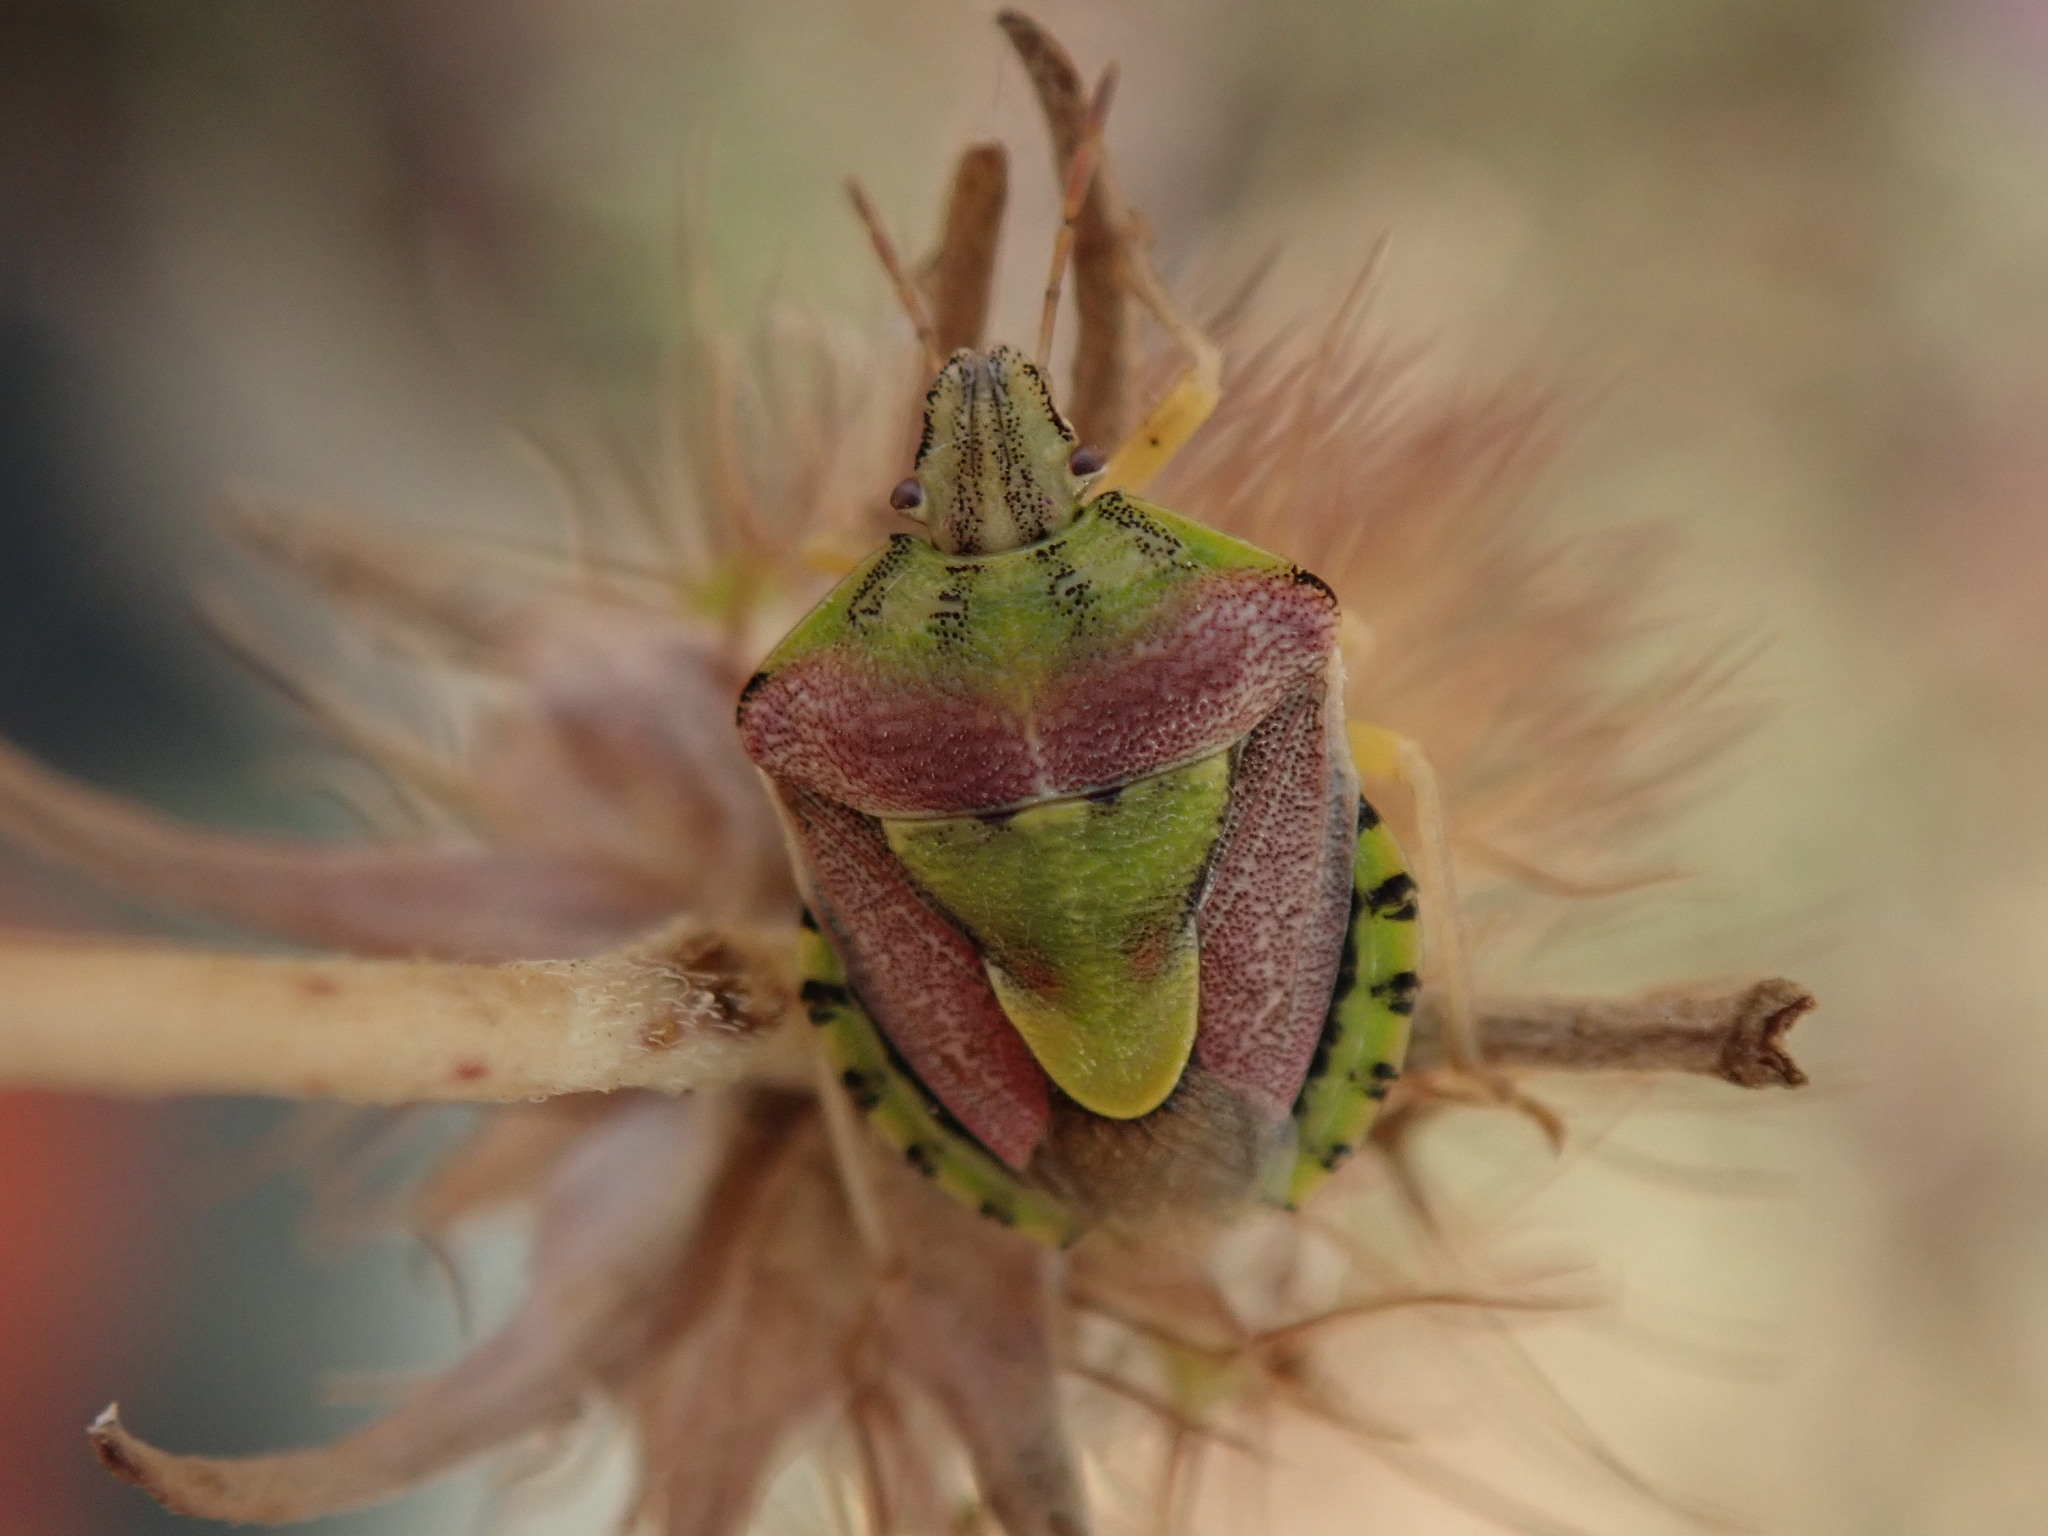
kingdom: Animalia
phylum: Arthropoda
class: Insecta
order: Hemiptera
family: Pentatomidae
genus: Antheminia
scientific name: Antheminia absinthii
